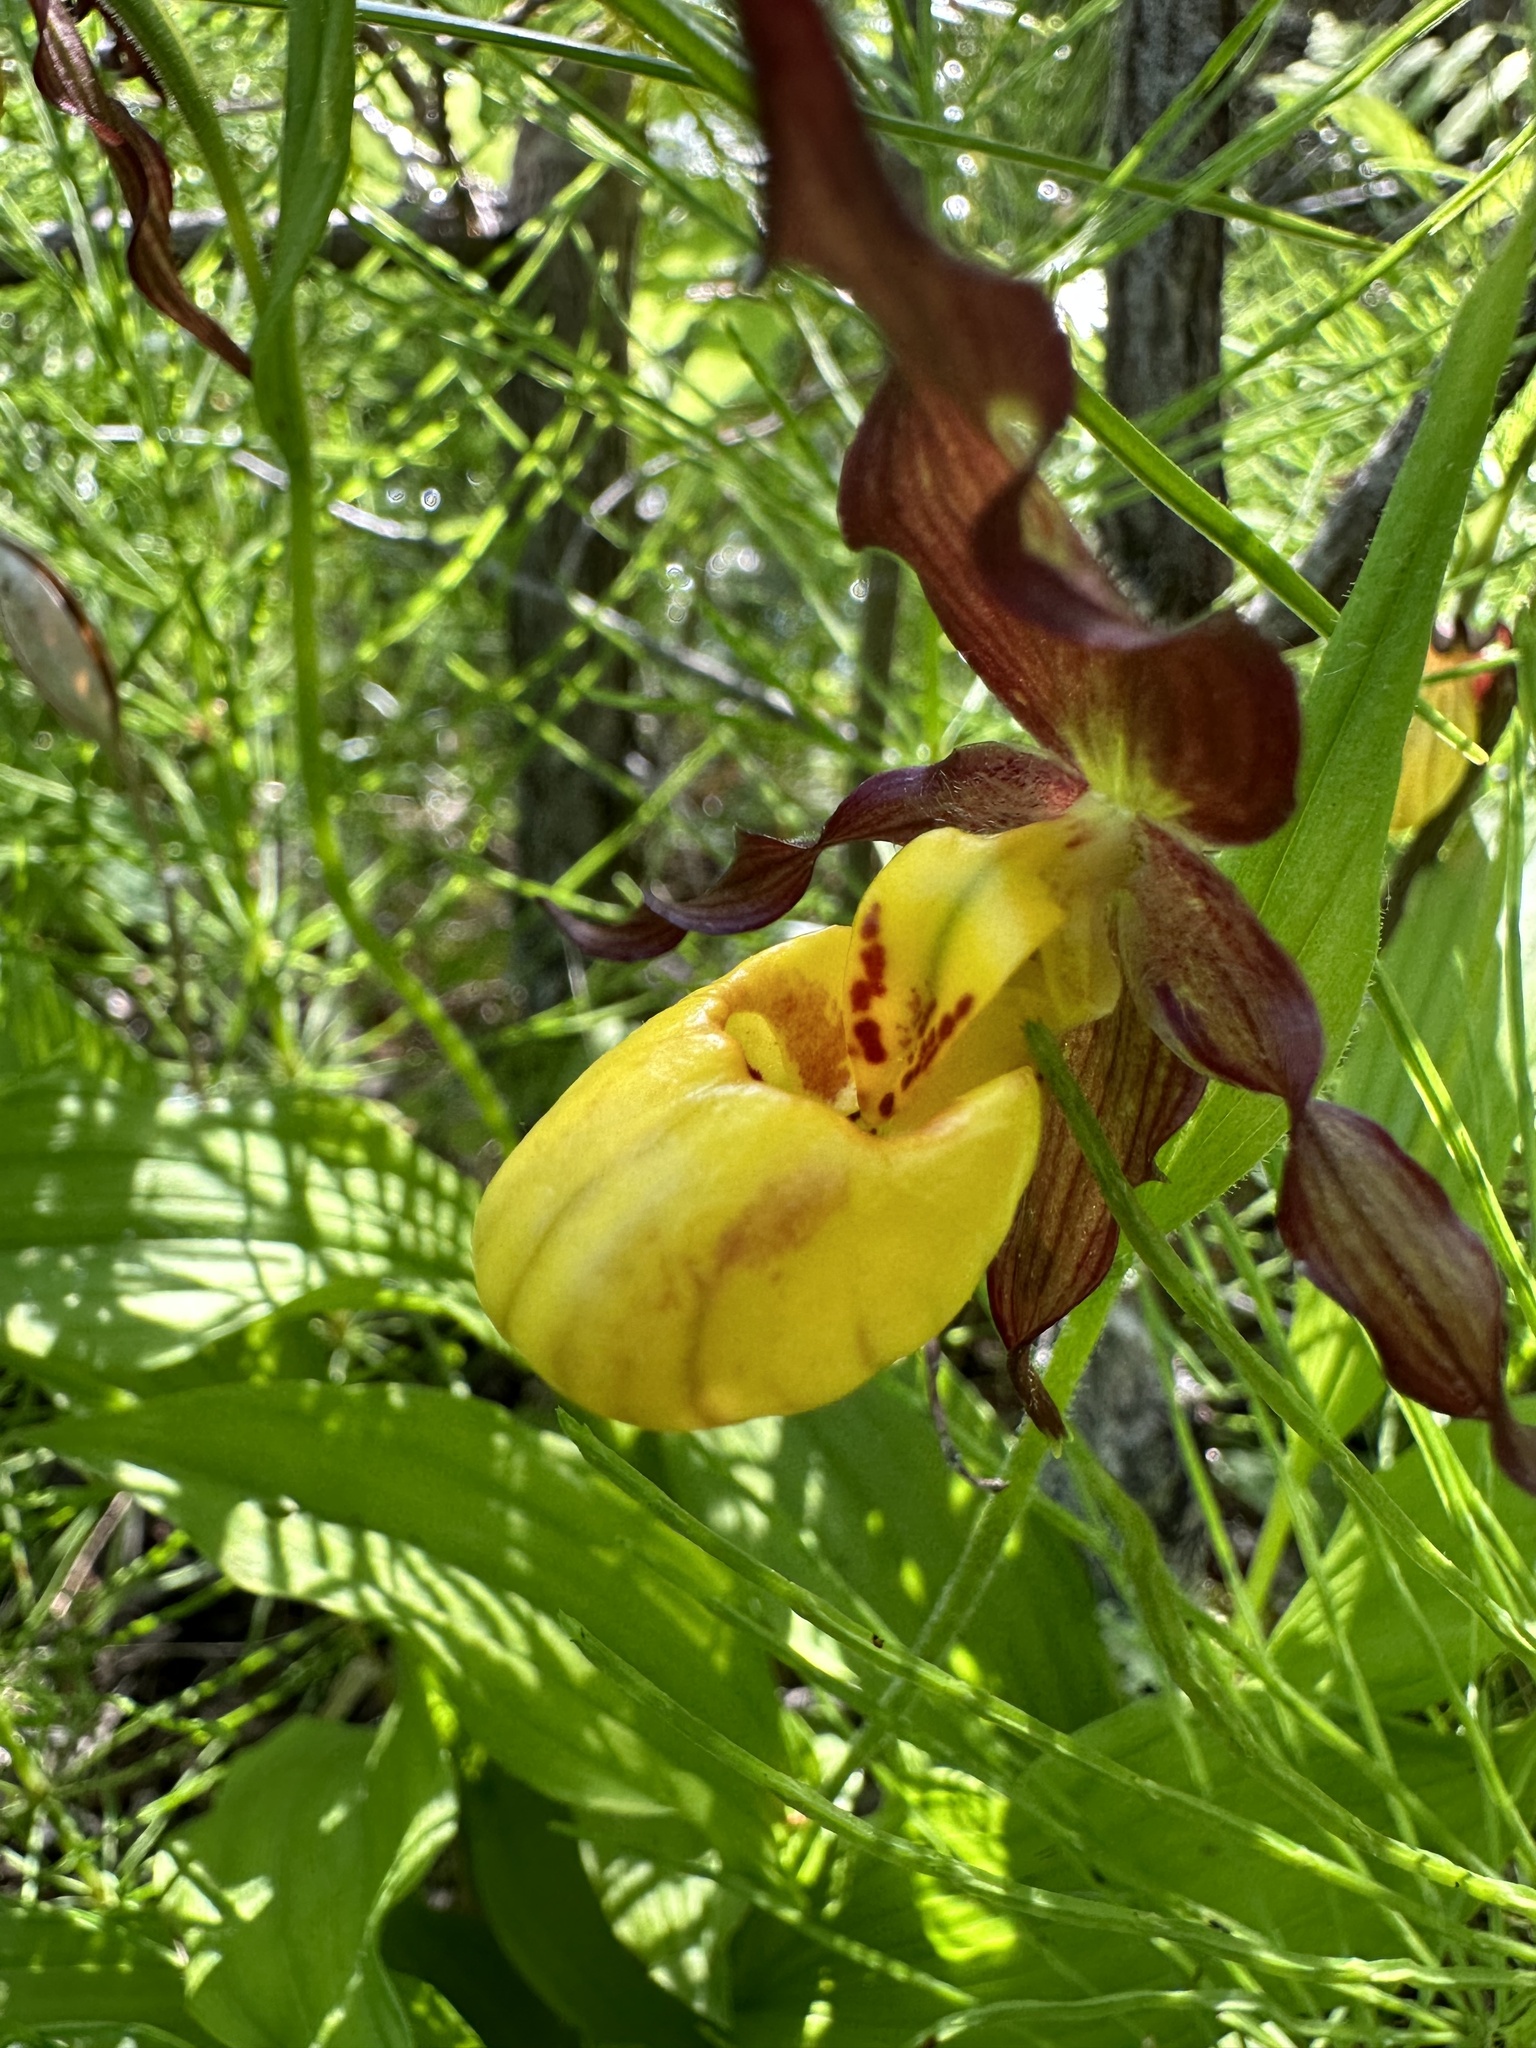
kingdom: Plantae
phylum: Tracheophyta
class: Liliopsida
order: Asparagales
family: Orchidaceae
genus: Cypripedium
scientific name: Cypripedium parviflorum
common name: American yellow lady's-slipper
